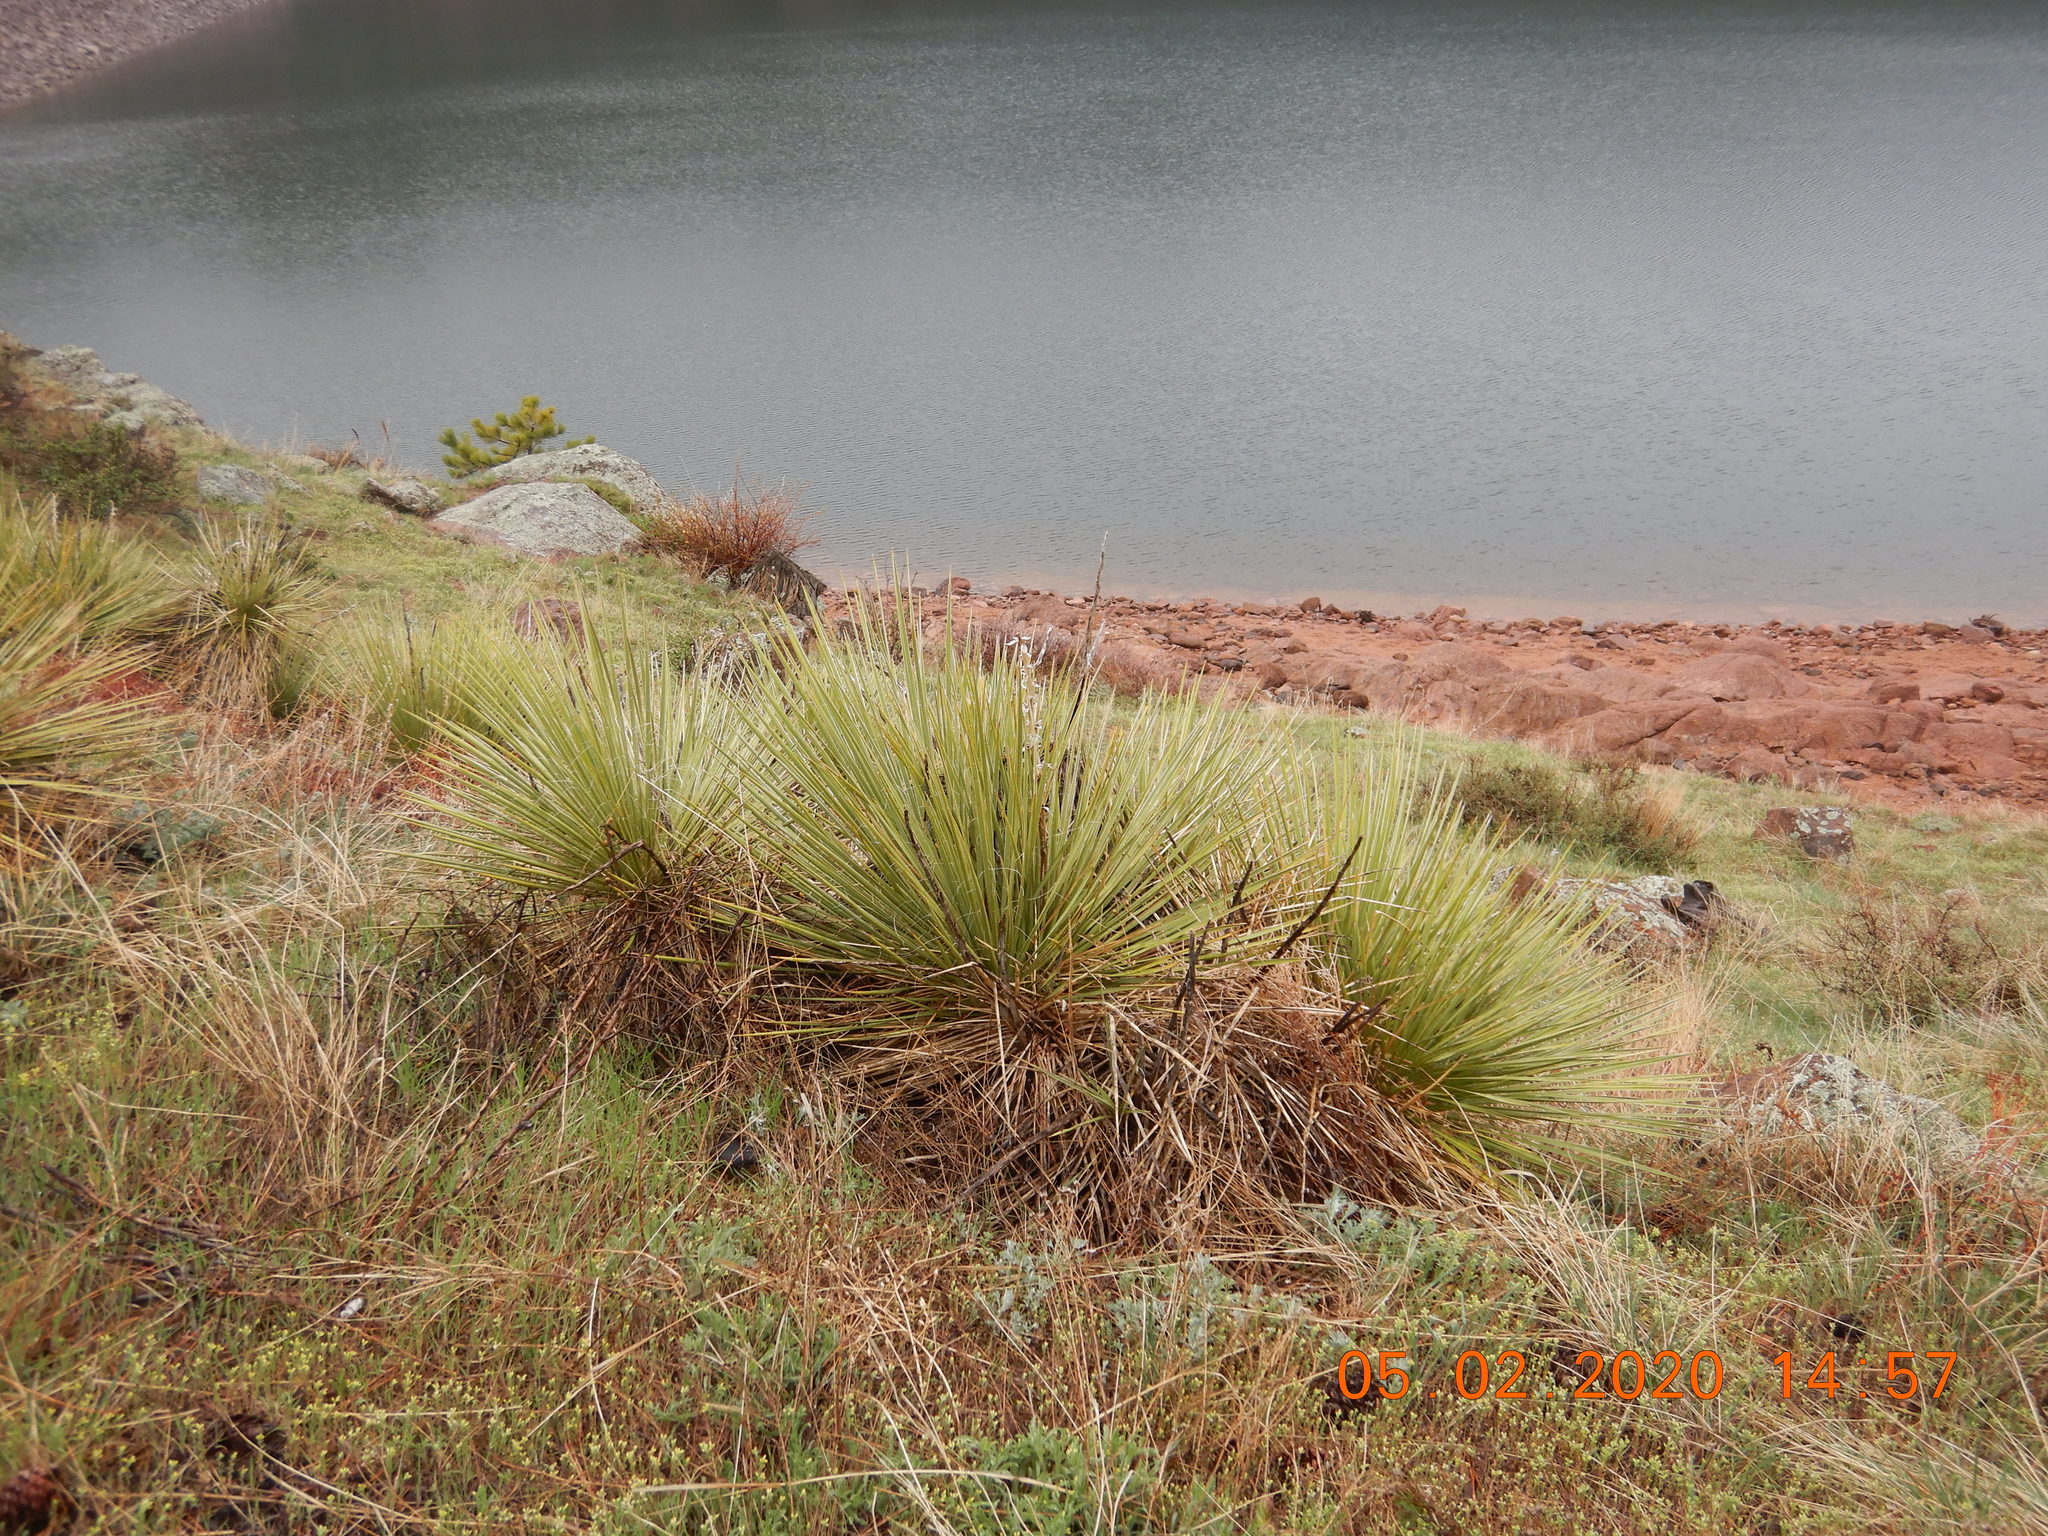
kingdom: Plantae
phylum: Tracheophyta
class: Liliopsida
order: Asparagales
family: Asparagaceae
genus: Yucca
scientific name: Yucca glauca
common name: Great plains yucca
